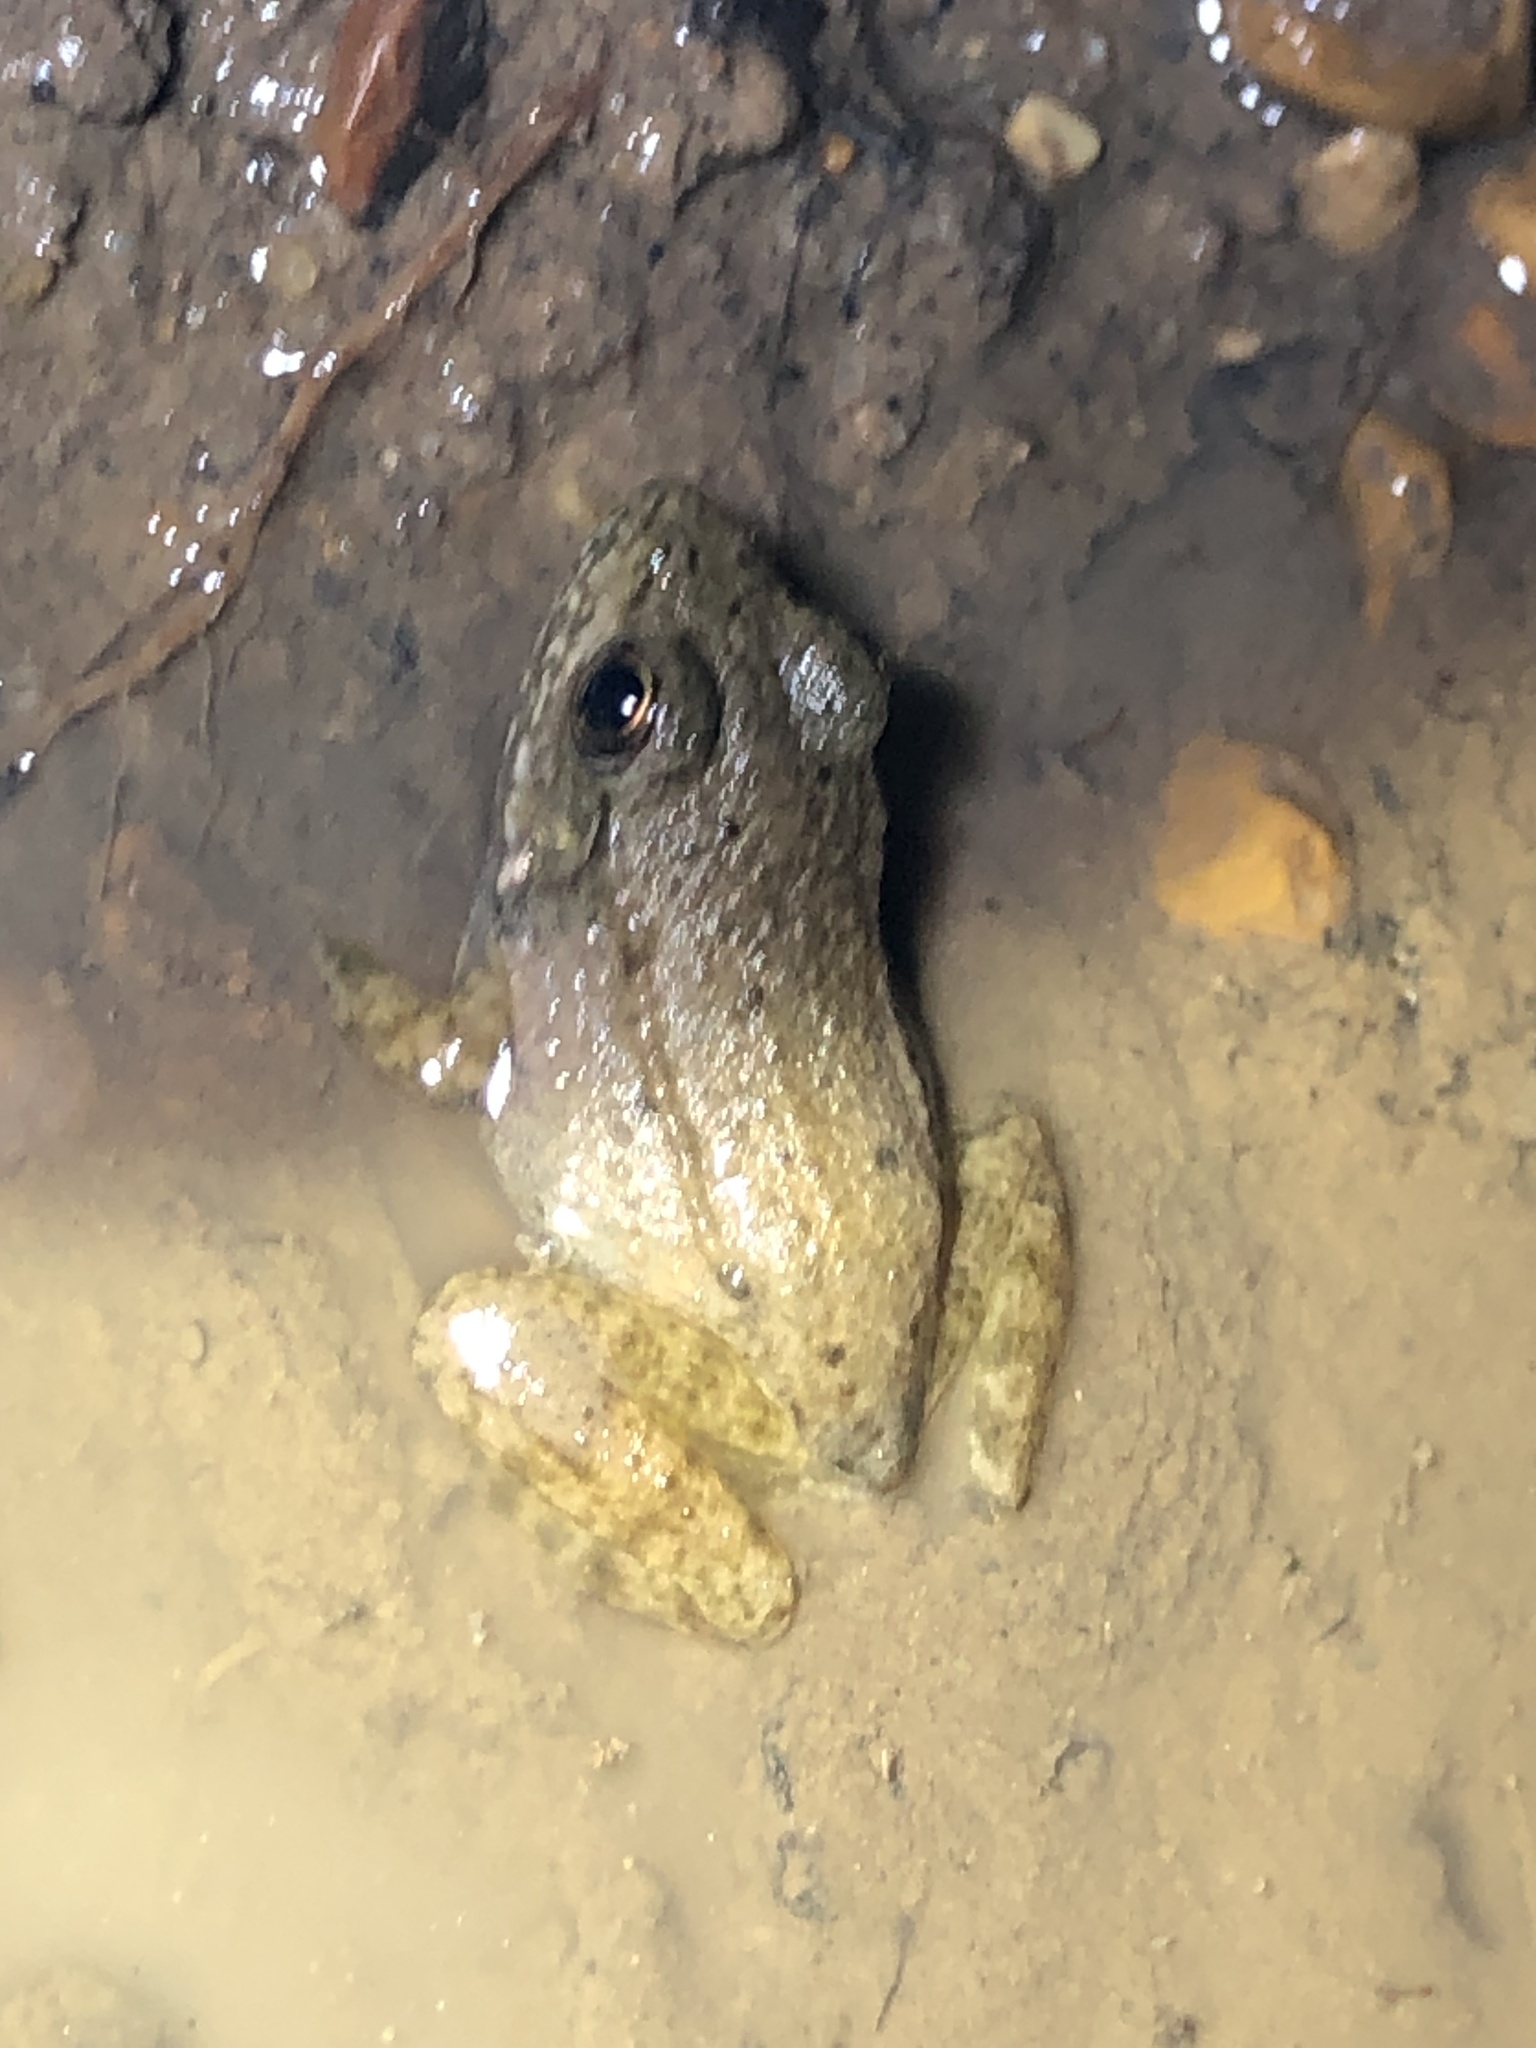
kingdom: Animalia
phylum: Chordata
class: Amphibia
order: Anura
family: Ranidae
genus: Lithobates
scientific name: Lithobates clamitans
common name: Green frog
